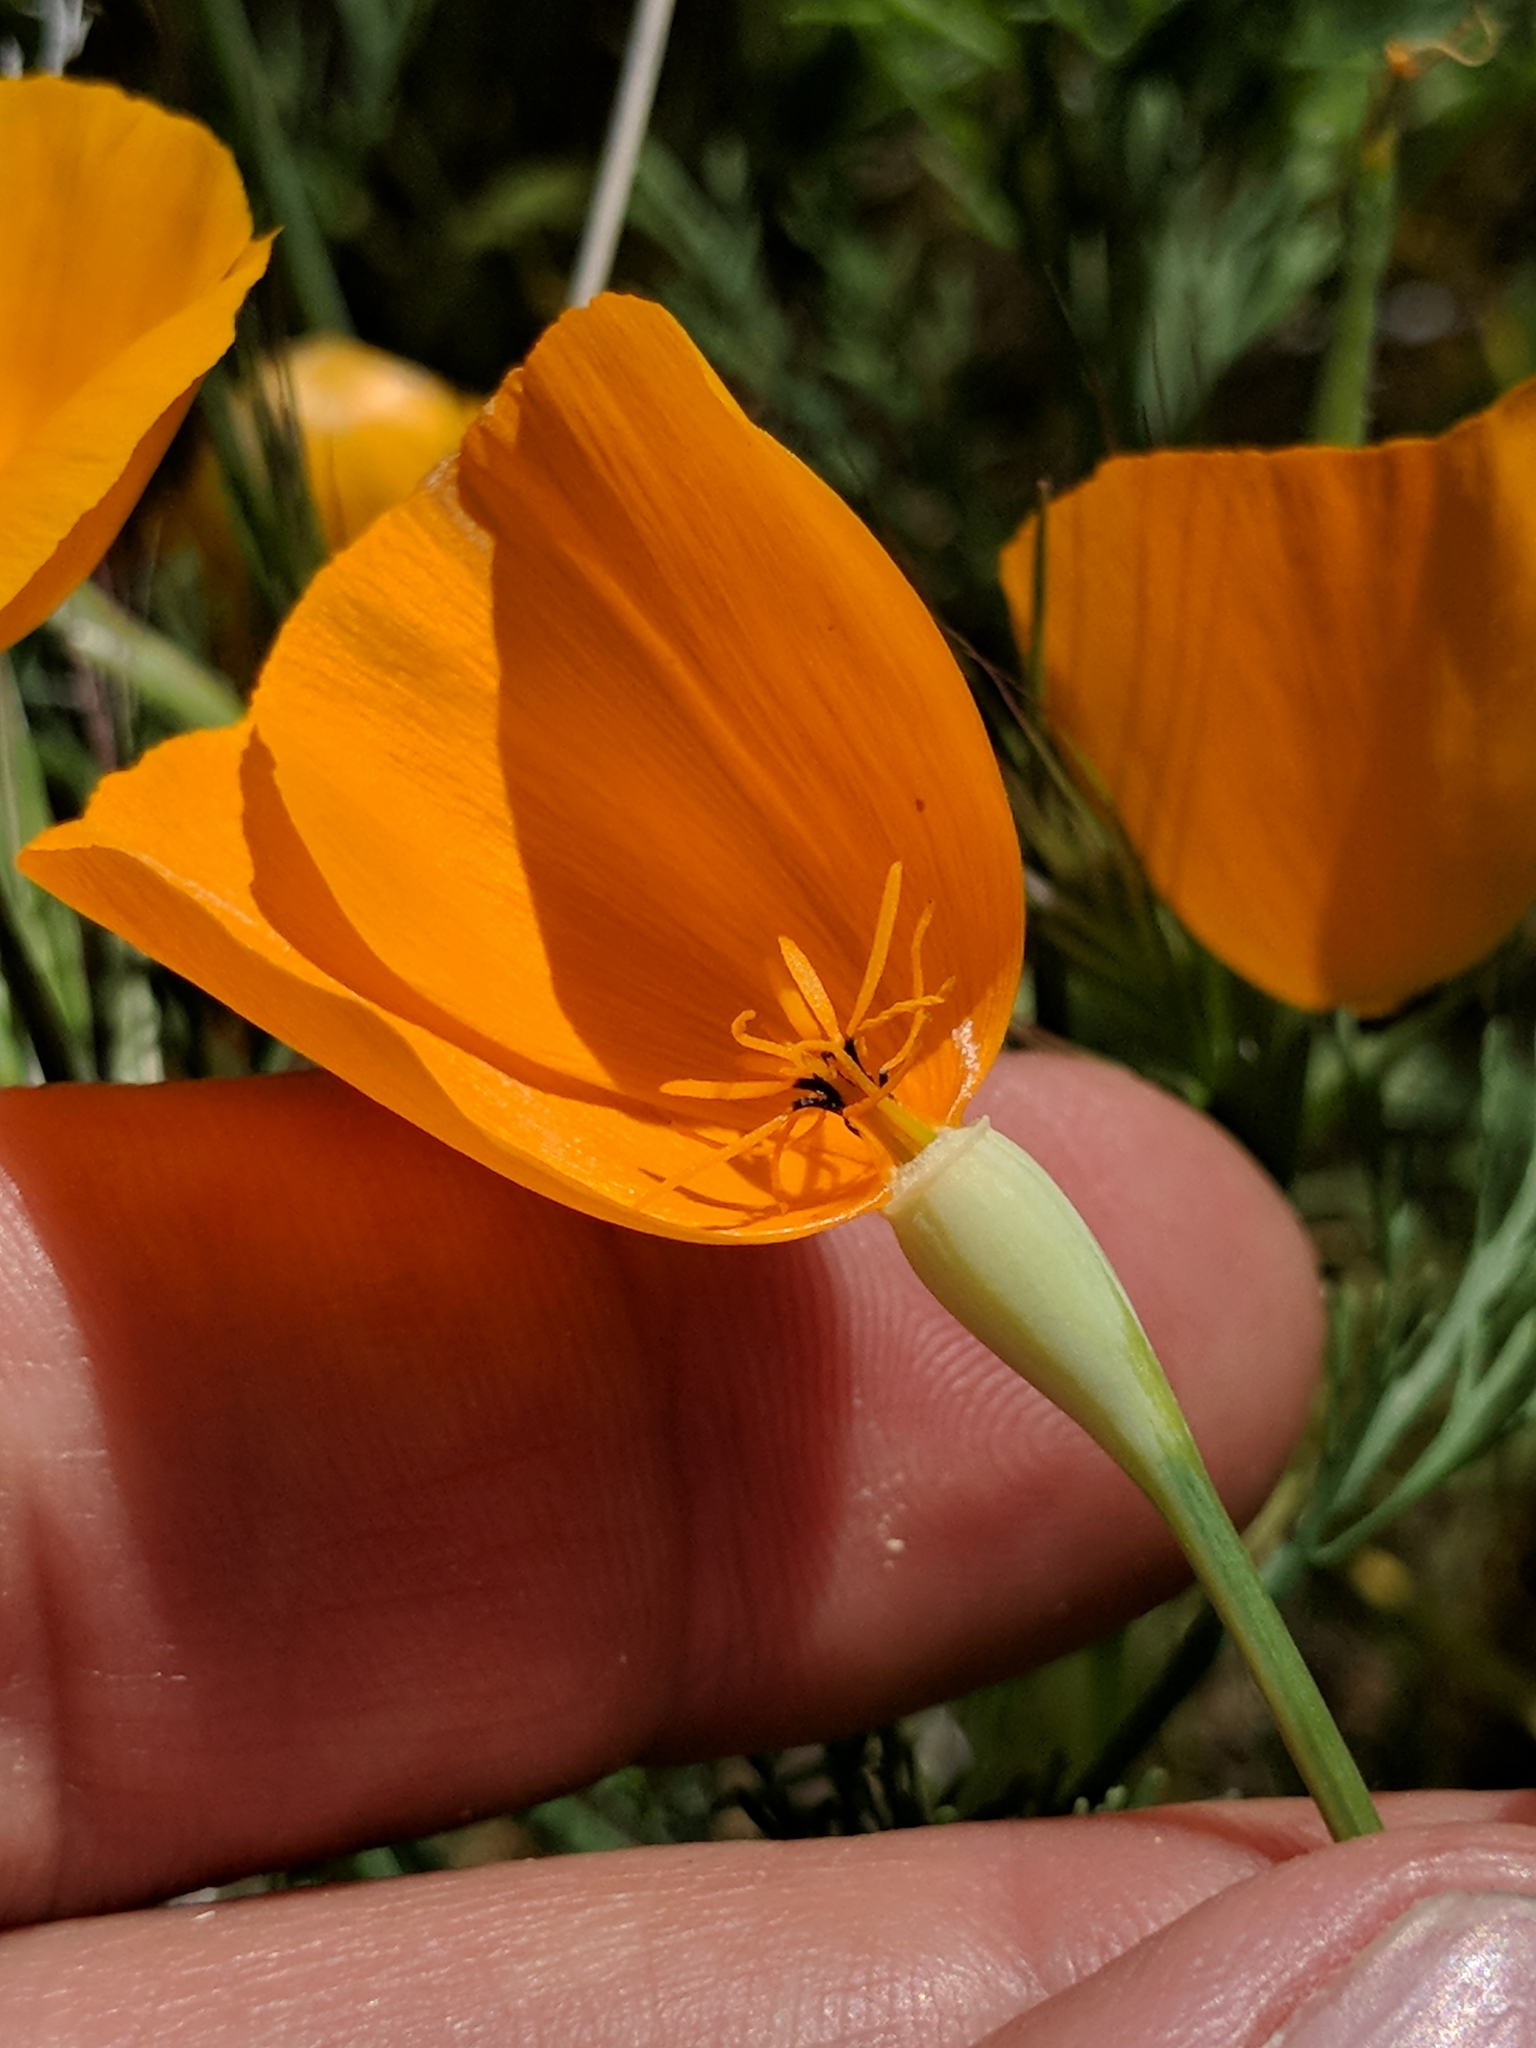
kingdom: Plantae
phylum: Tracheophyta
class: Magnoliopsida
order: Ranunculales
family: Papaveraceae
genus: Eschscholzia
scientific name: Eschscholzia lemmonii
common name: Lemmon's poppy
